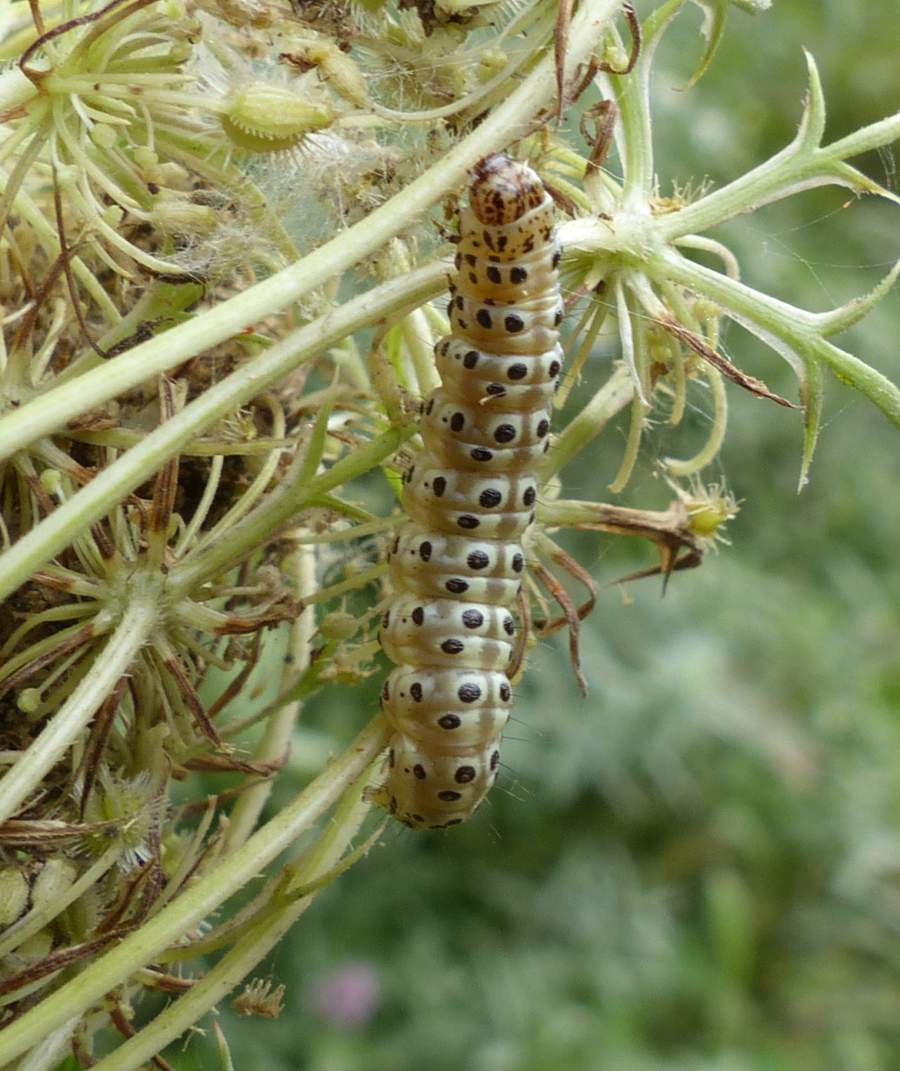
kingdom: Animalia
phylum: Arthropoda
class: Insecta
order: Lepidoptera
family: Crambidae
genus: Sitochroa
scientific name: Sitochroa palealis
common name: Greenish-yellow sitochroa moth
